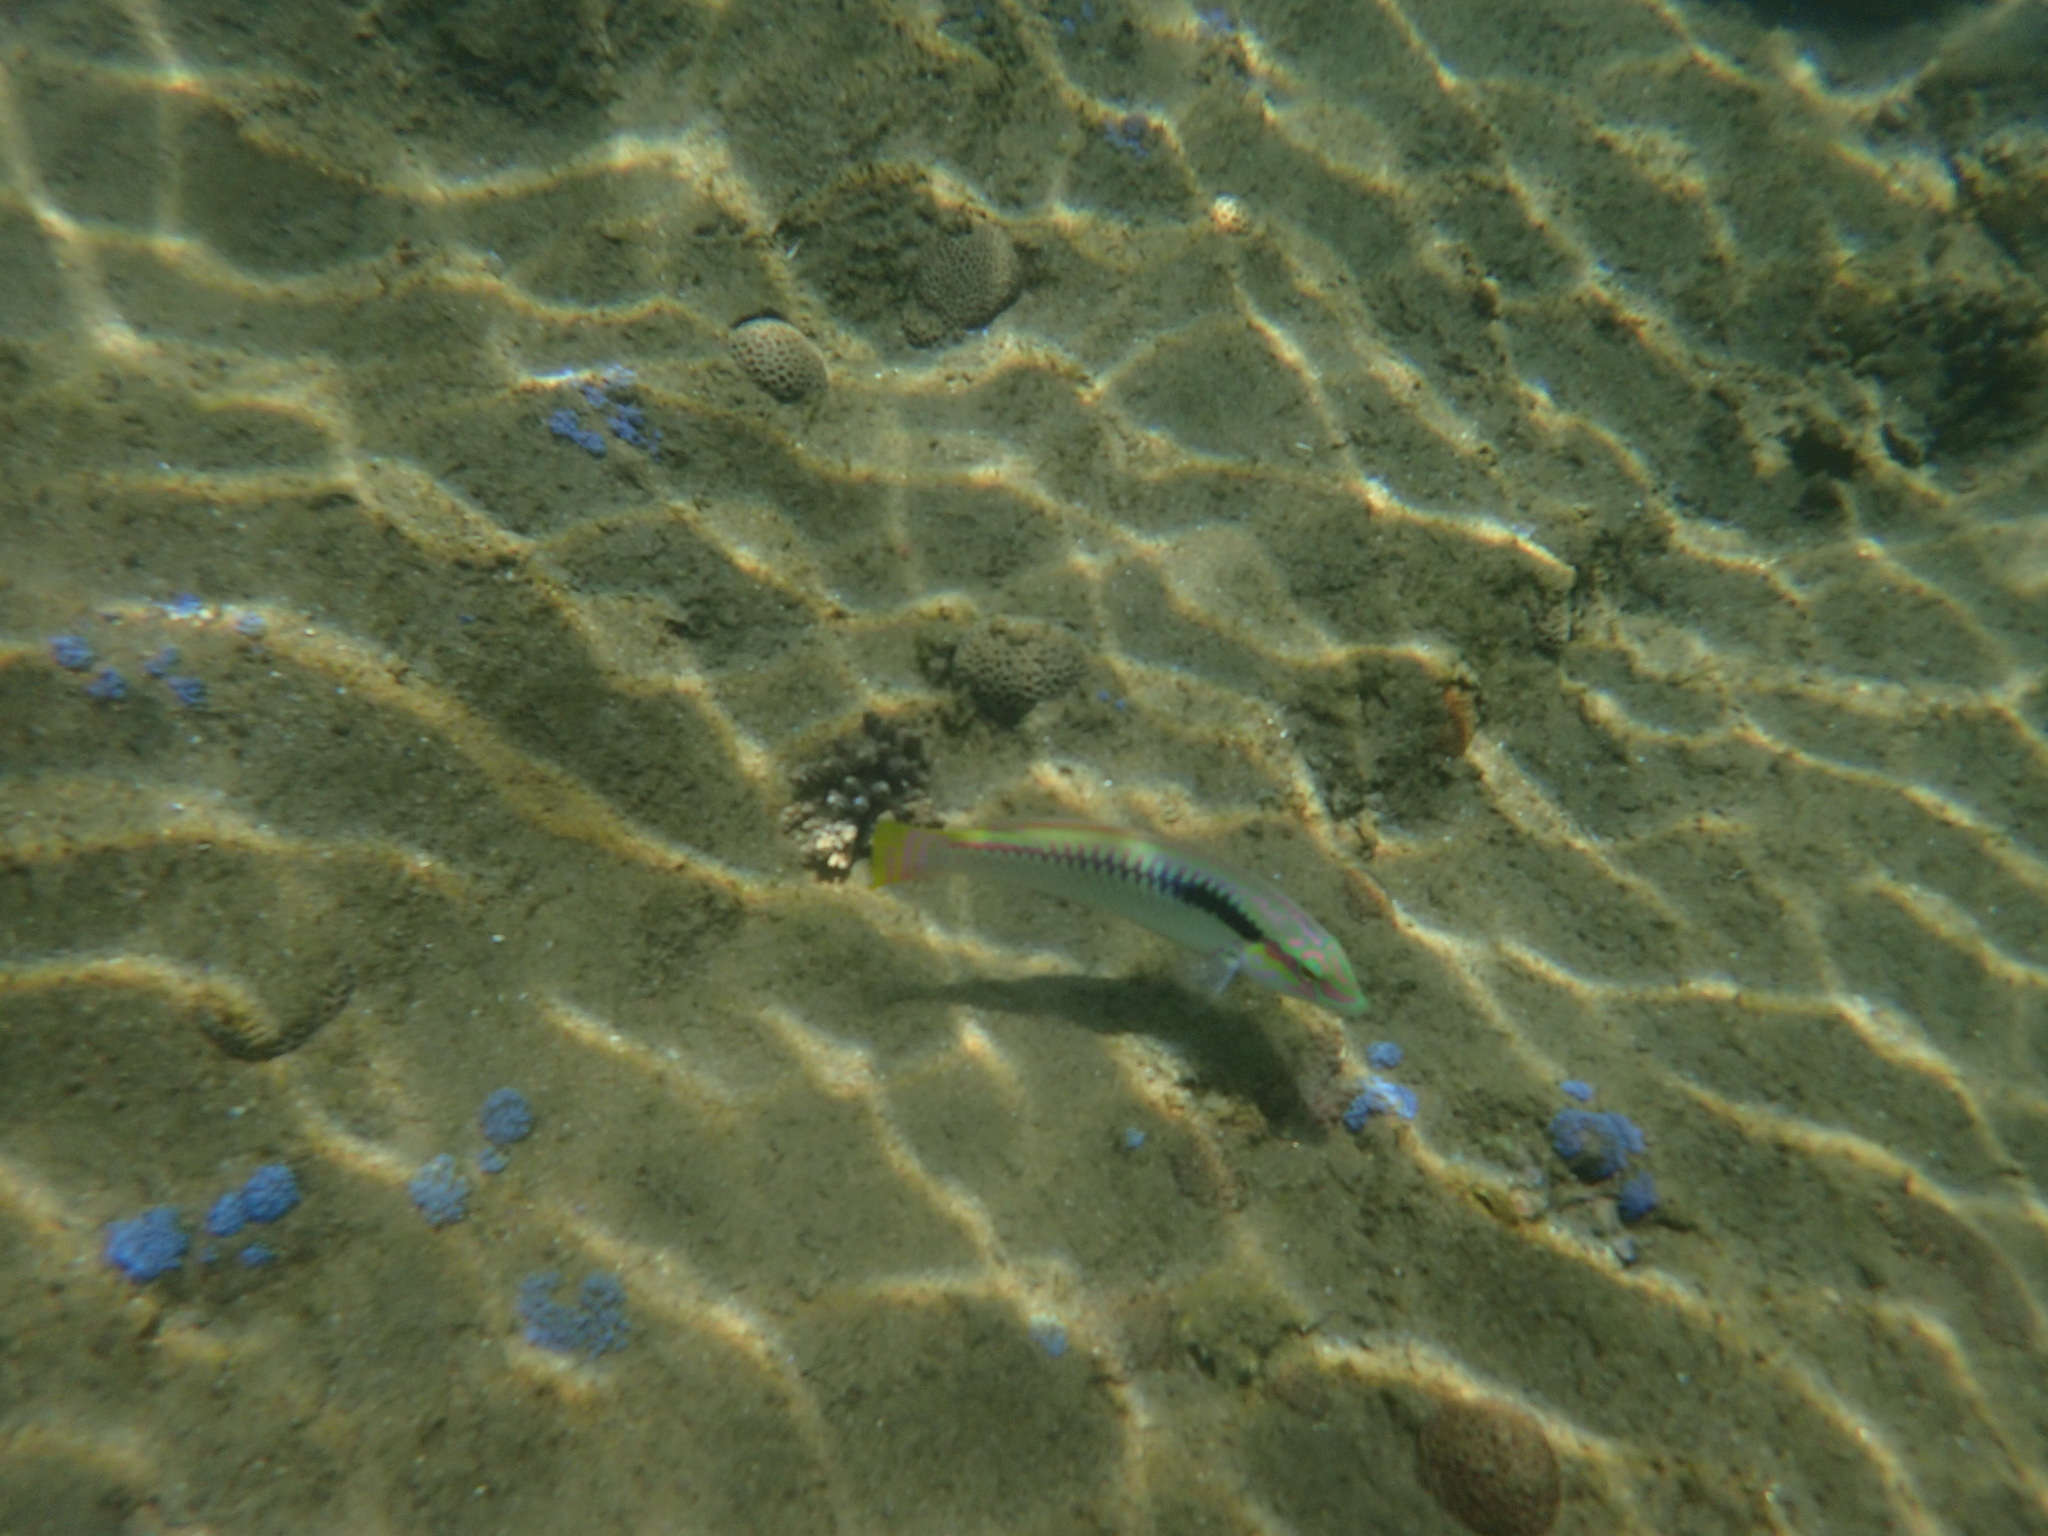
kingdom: Animalia
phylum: Chordata
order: Perciformes
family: Labridae
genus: Halichoeres
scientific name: Halichoeres scapularis
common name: Brownbanded wrasse
